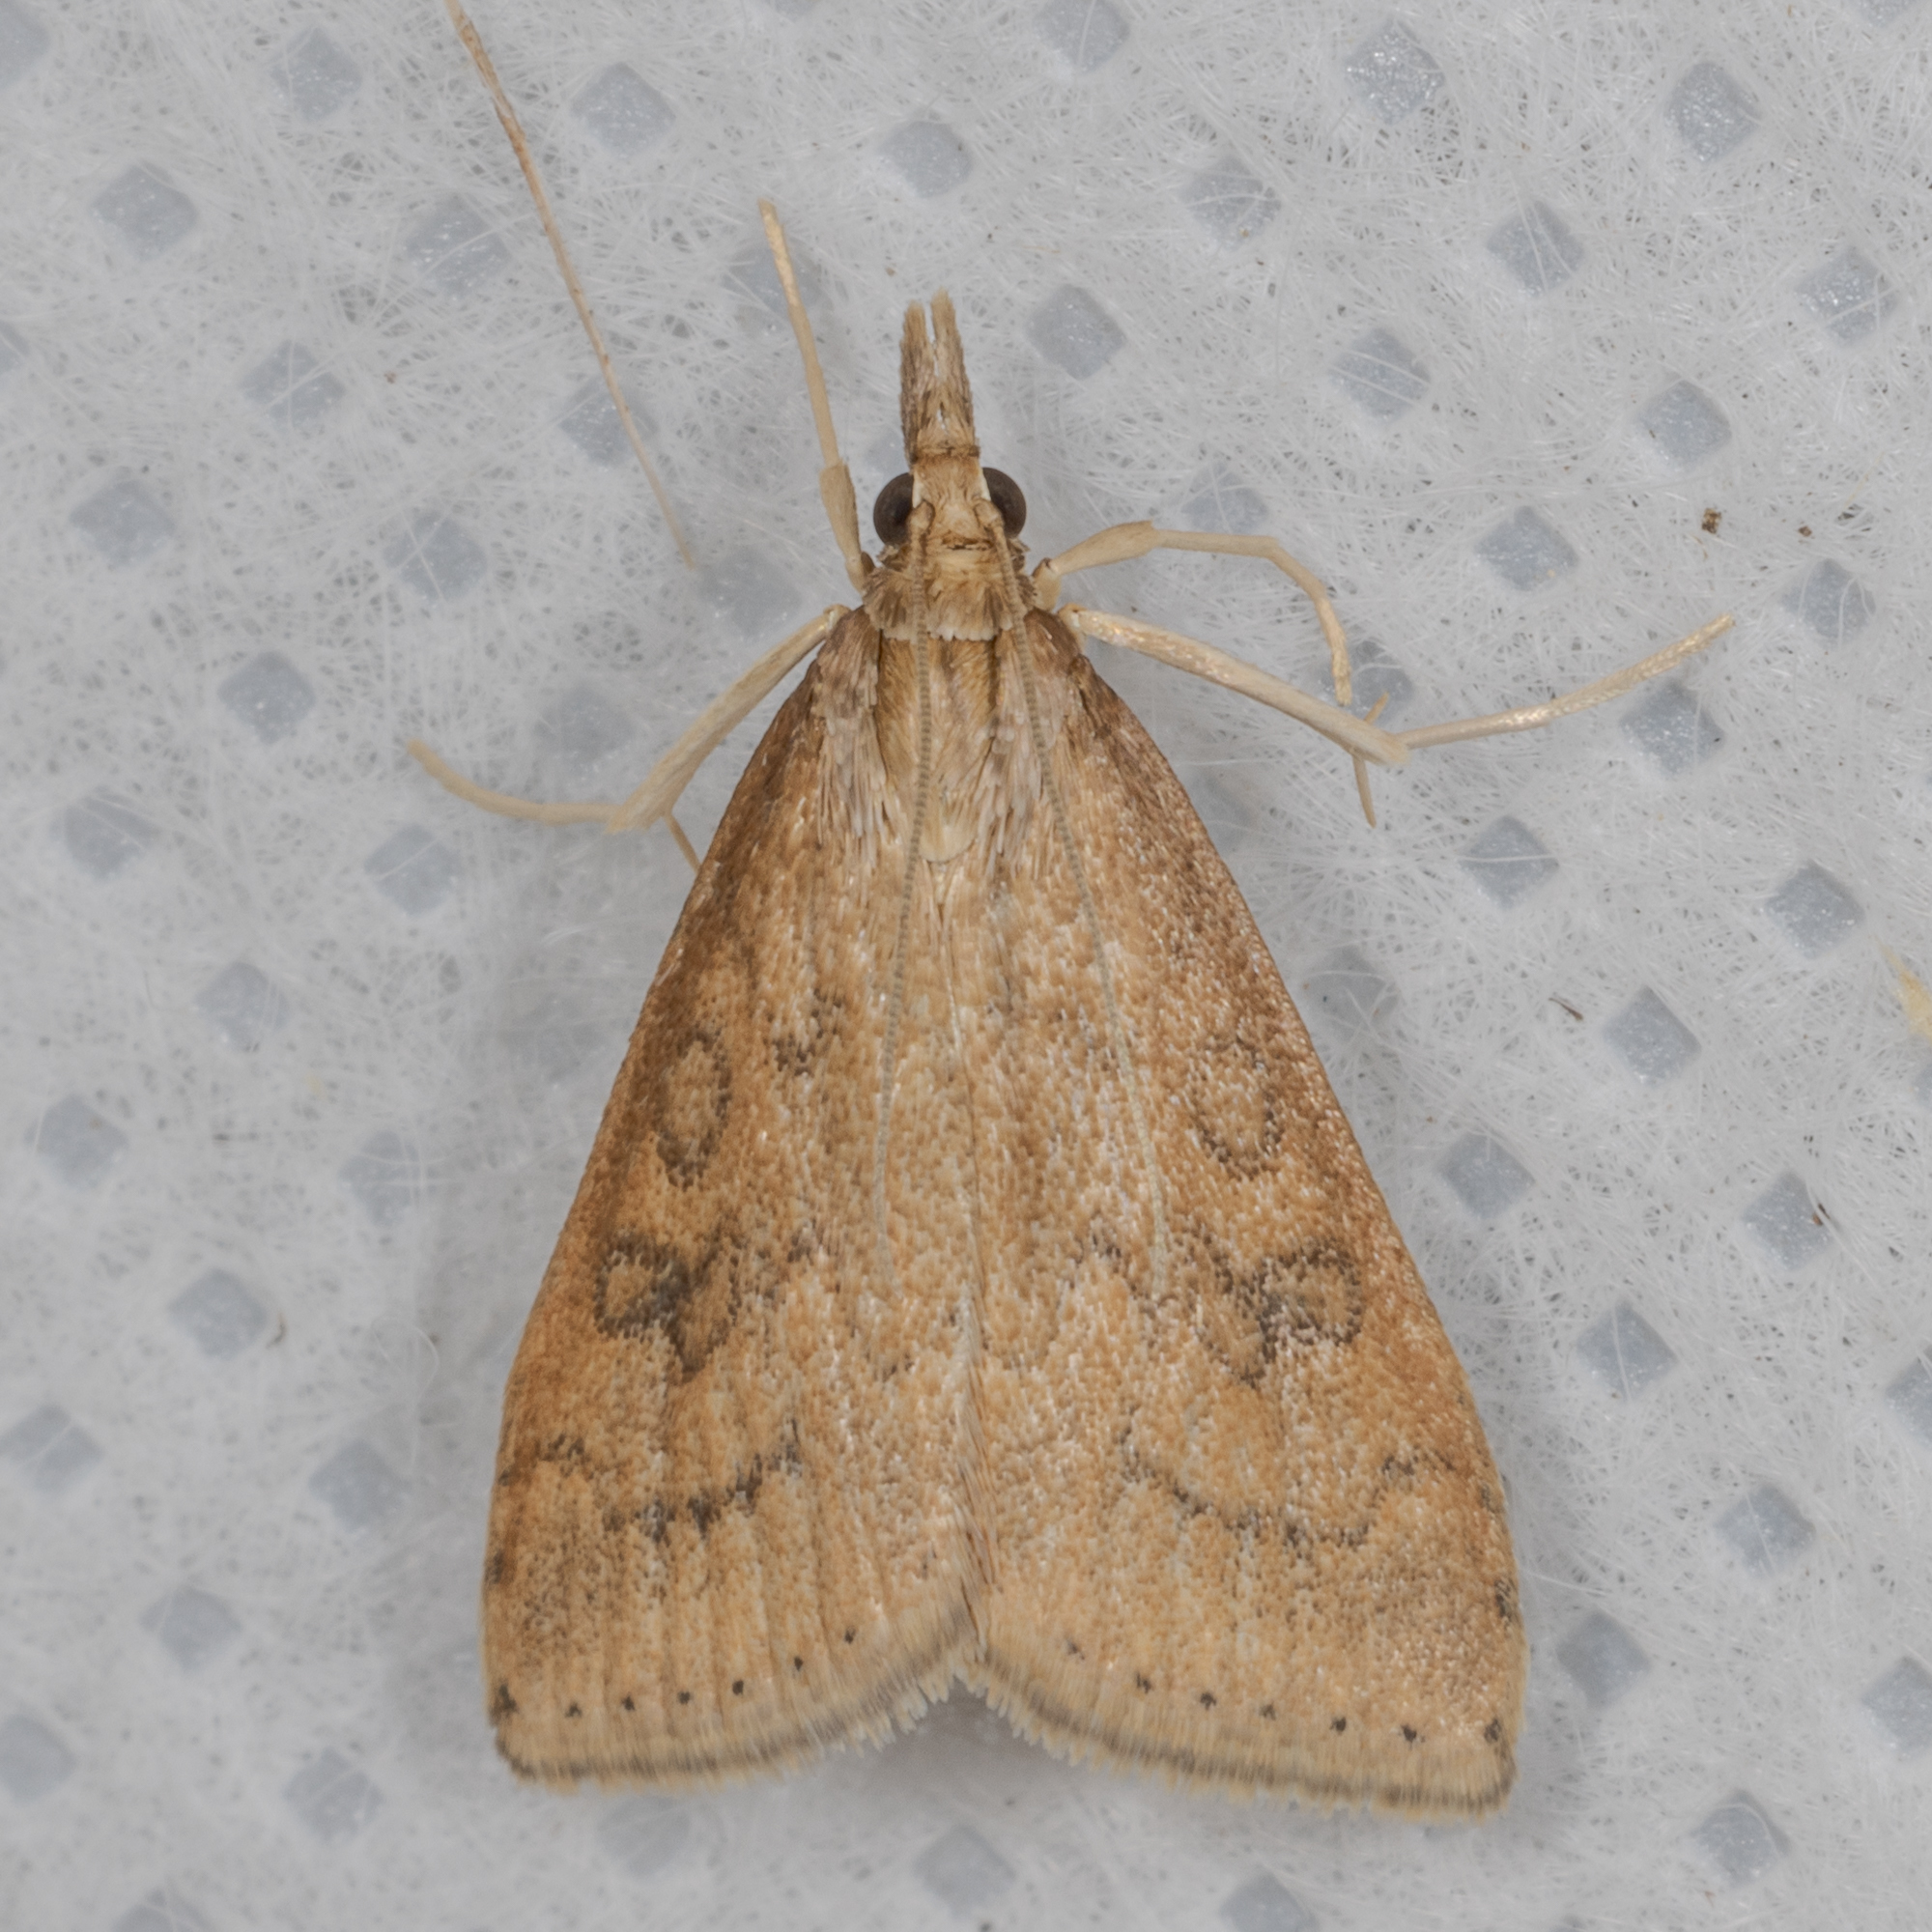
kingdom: Animalia
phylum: Arthropoda
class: Insecta
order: Lepidoptera
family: Crambidae
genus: Udea
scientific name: Udea rubigalis
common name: Celery leaftier moth
